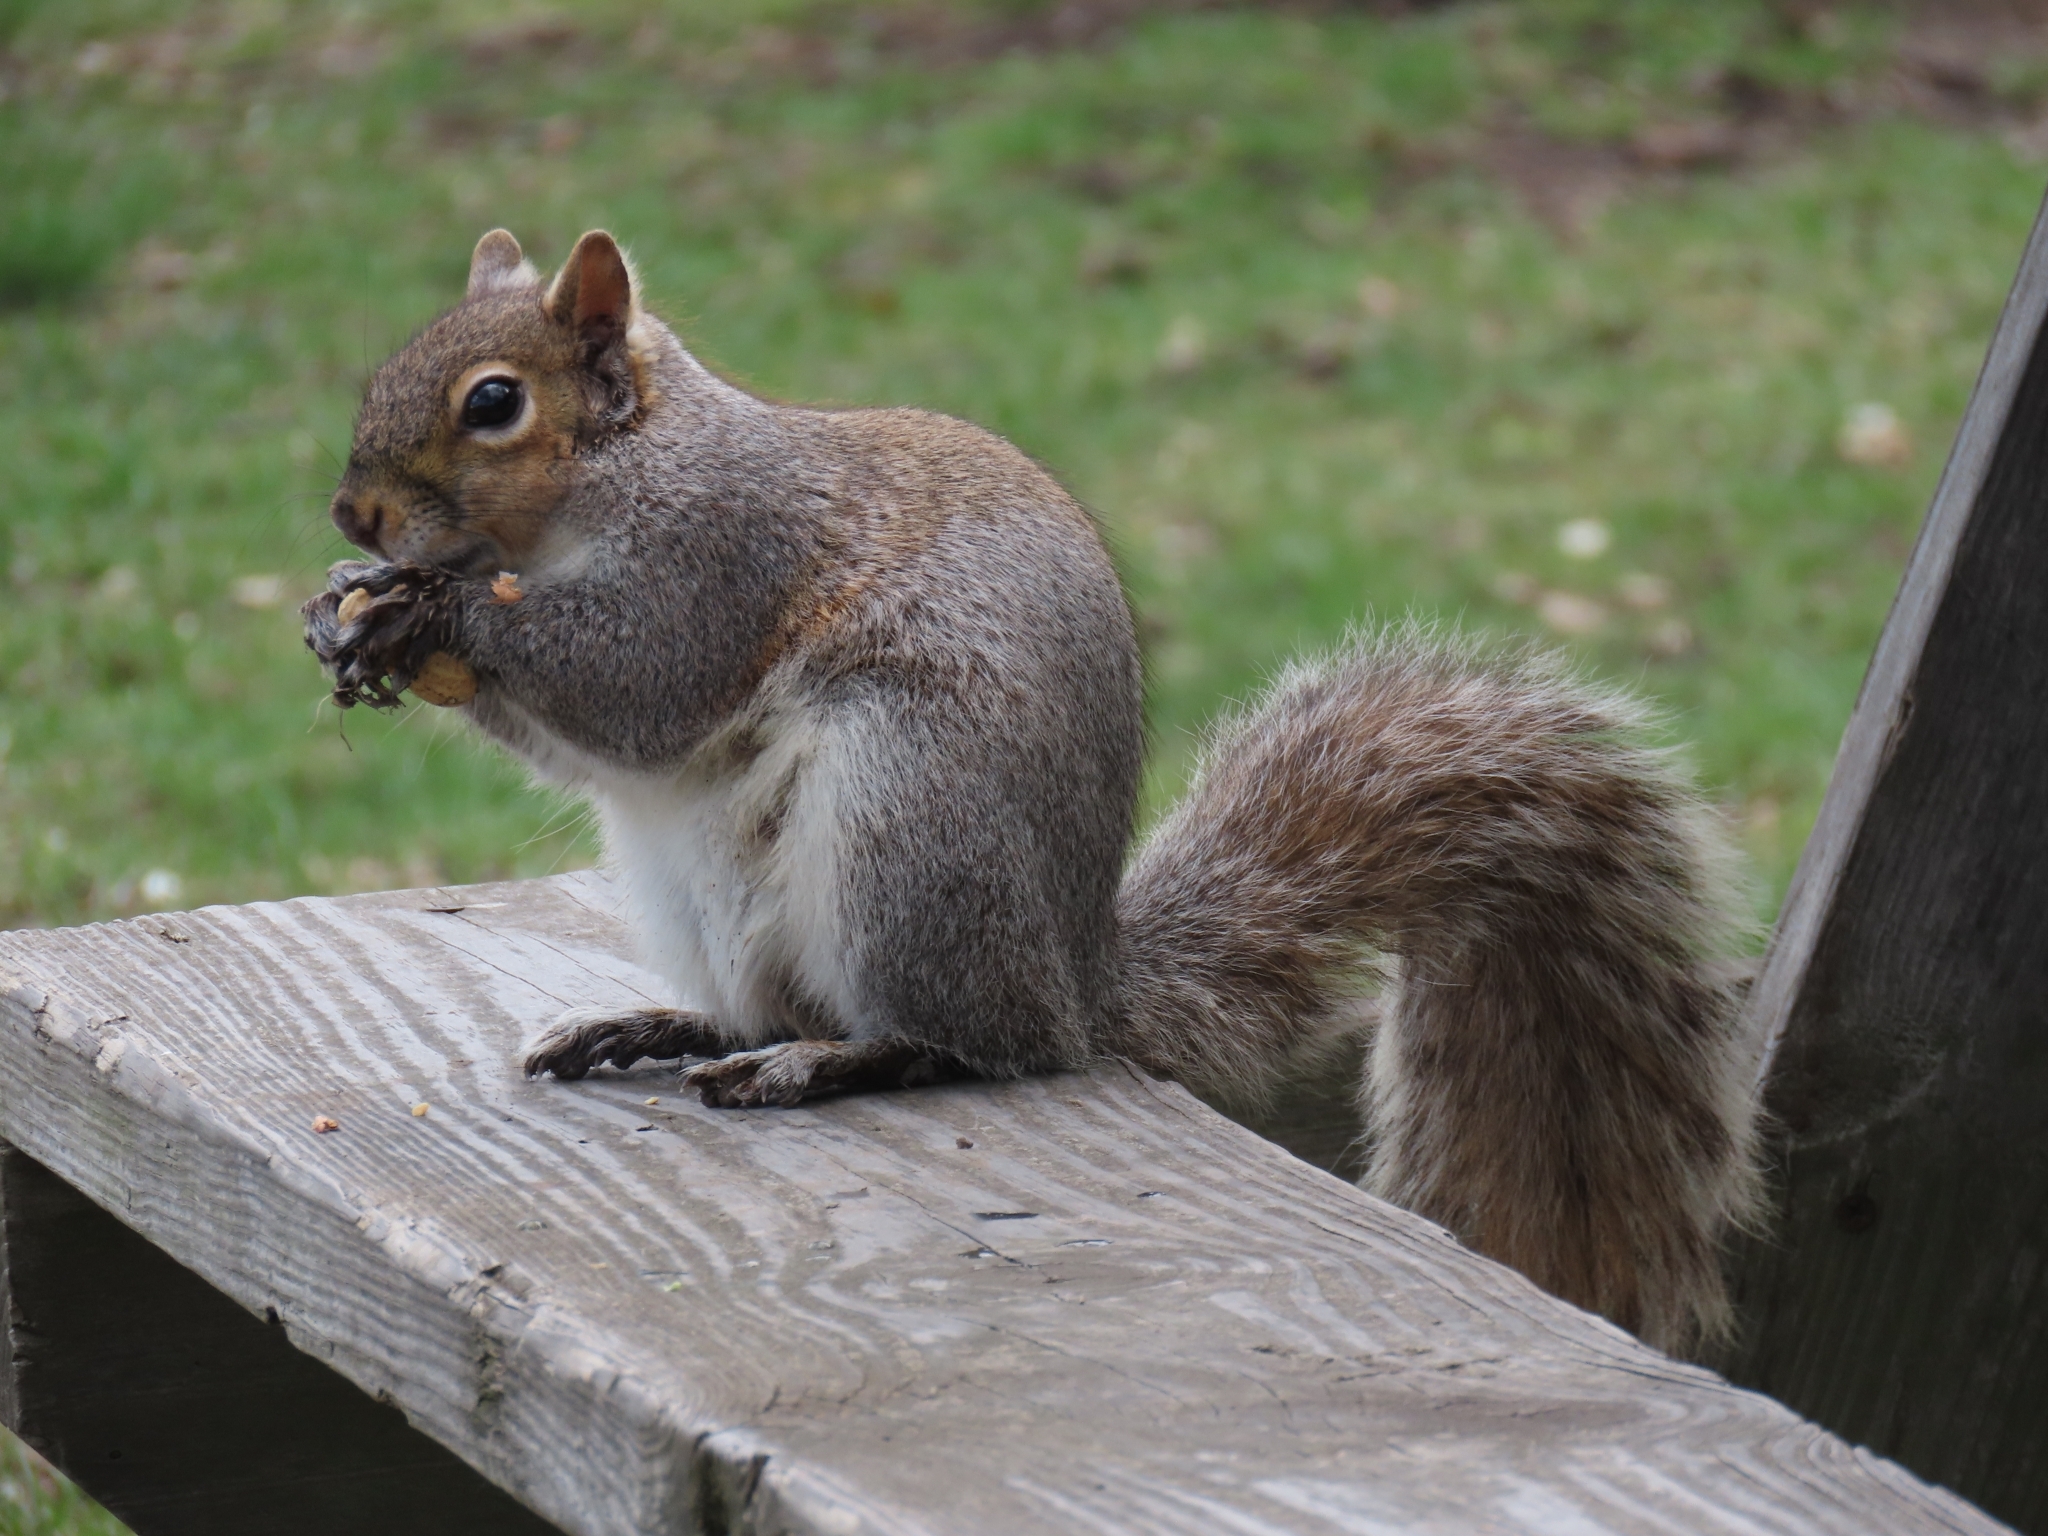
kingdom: Animalia
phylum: Chordata
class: Mammalia
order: Rodentia
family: Sciuridae
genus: Sciurus
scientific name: Sciurus carolinensis
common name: Eastern gray squirrel
